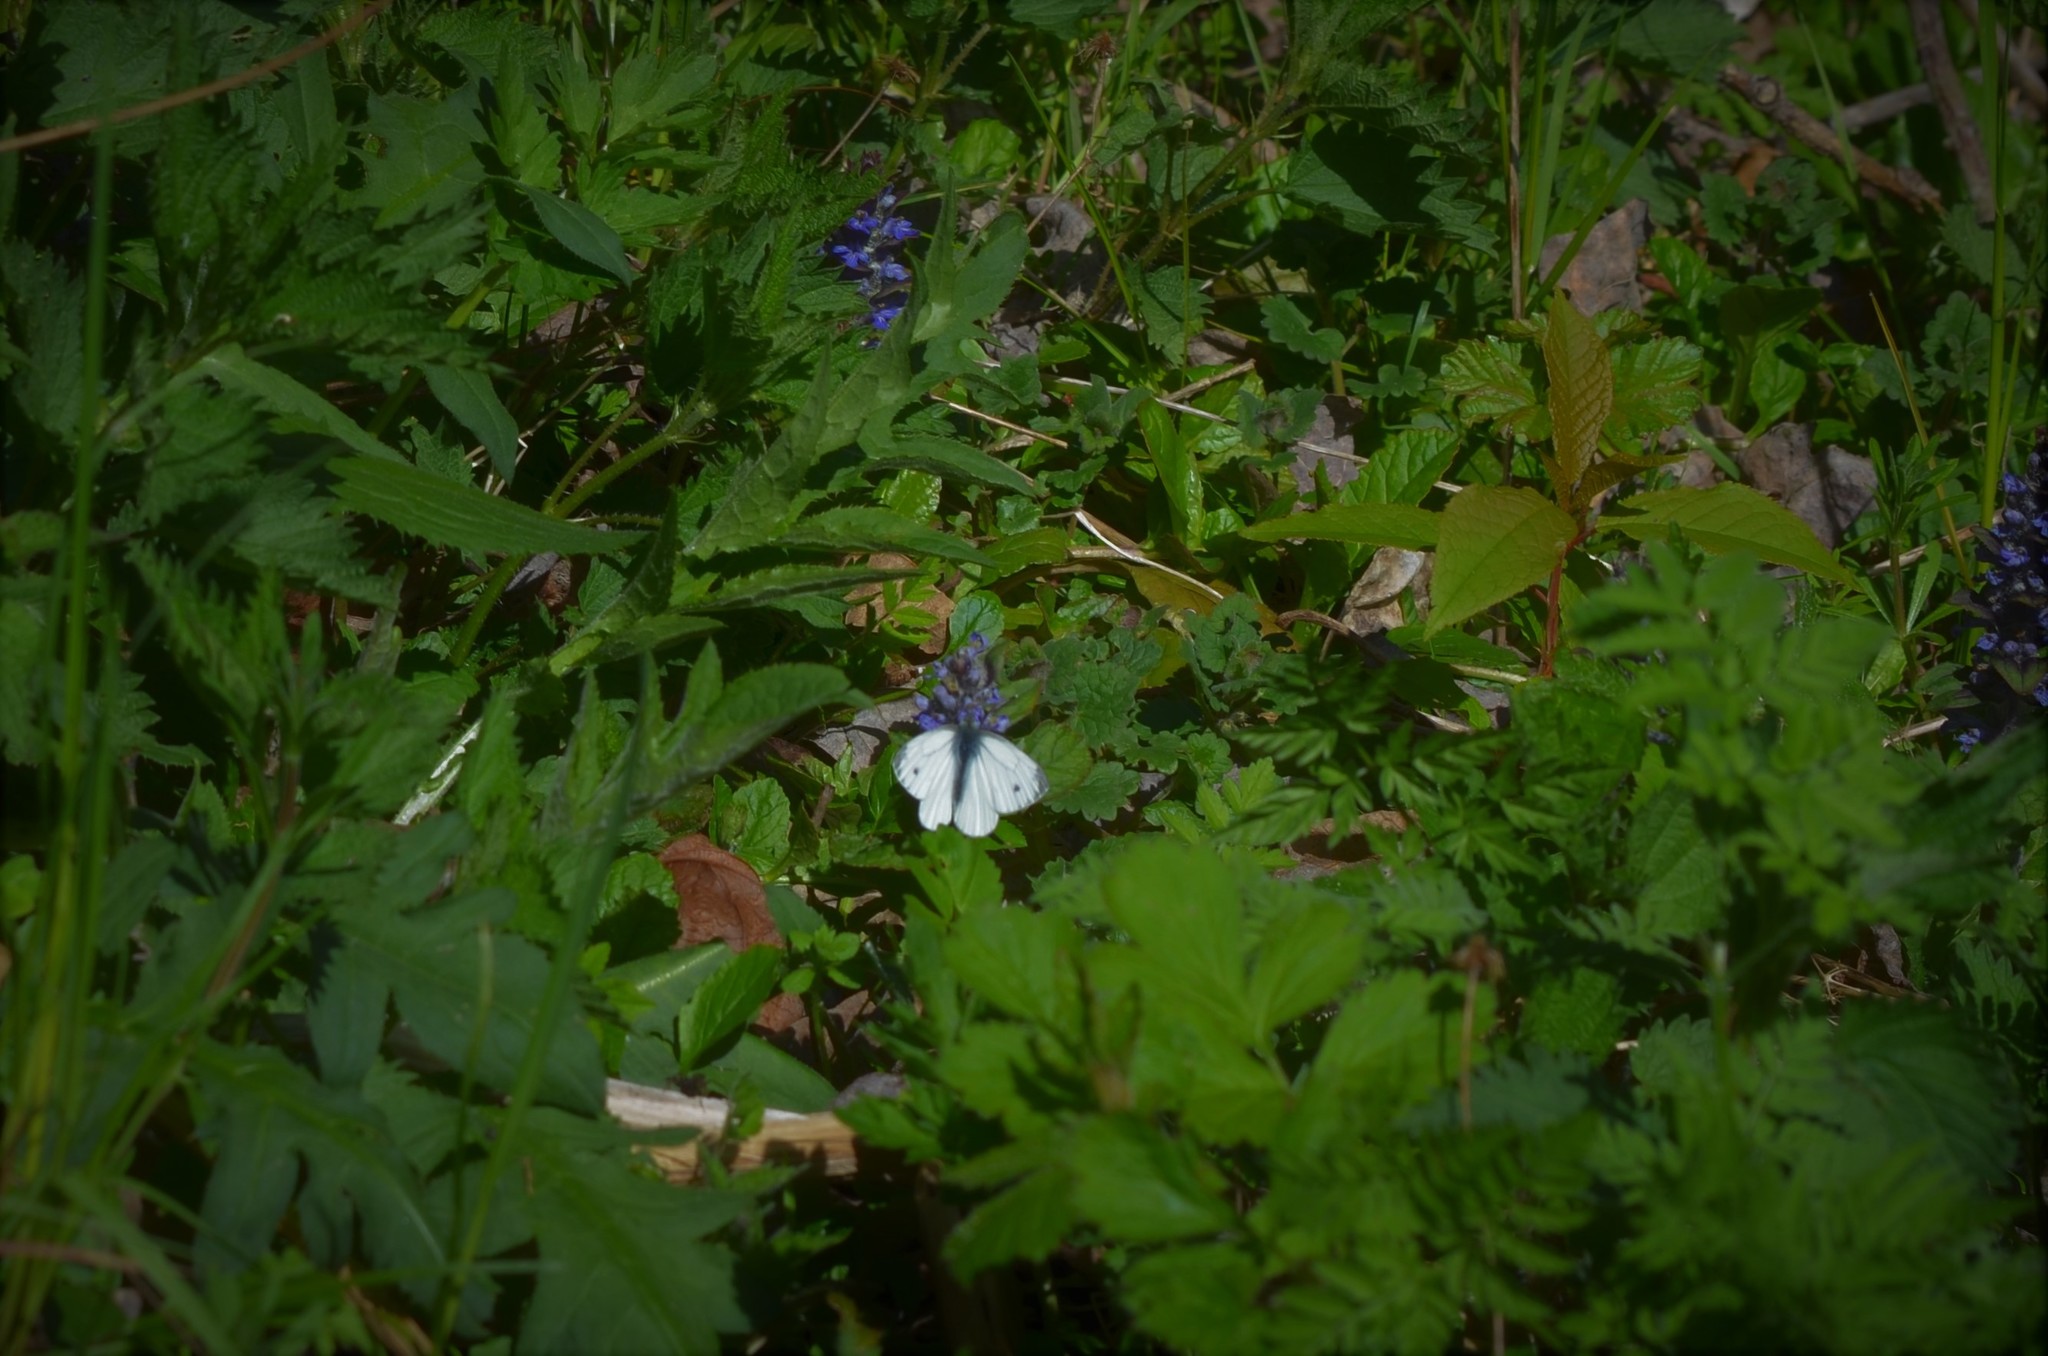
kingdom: Animalia
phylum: Arthropoda
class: Insecta
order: Lepidoptera
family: Pieridae
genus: Pieris
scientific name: Pieris napi
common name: Green-veined white
